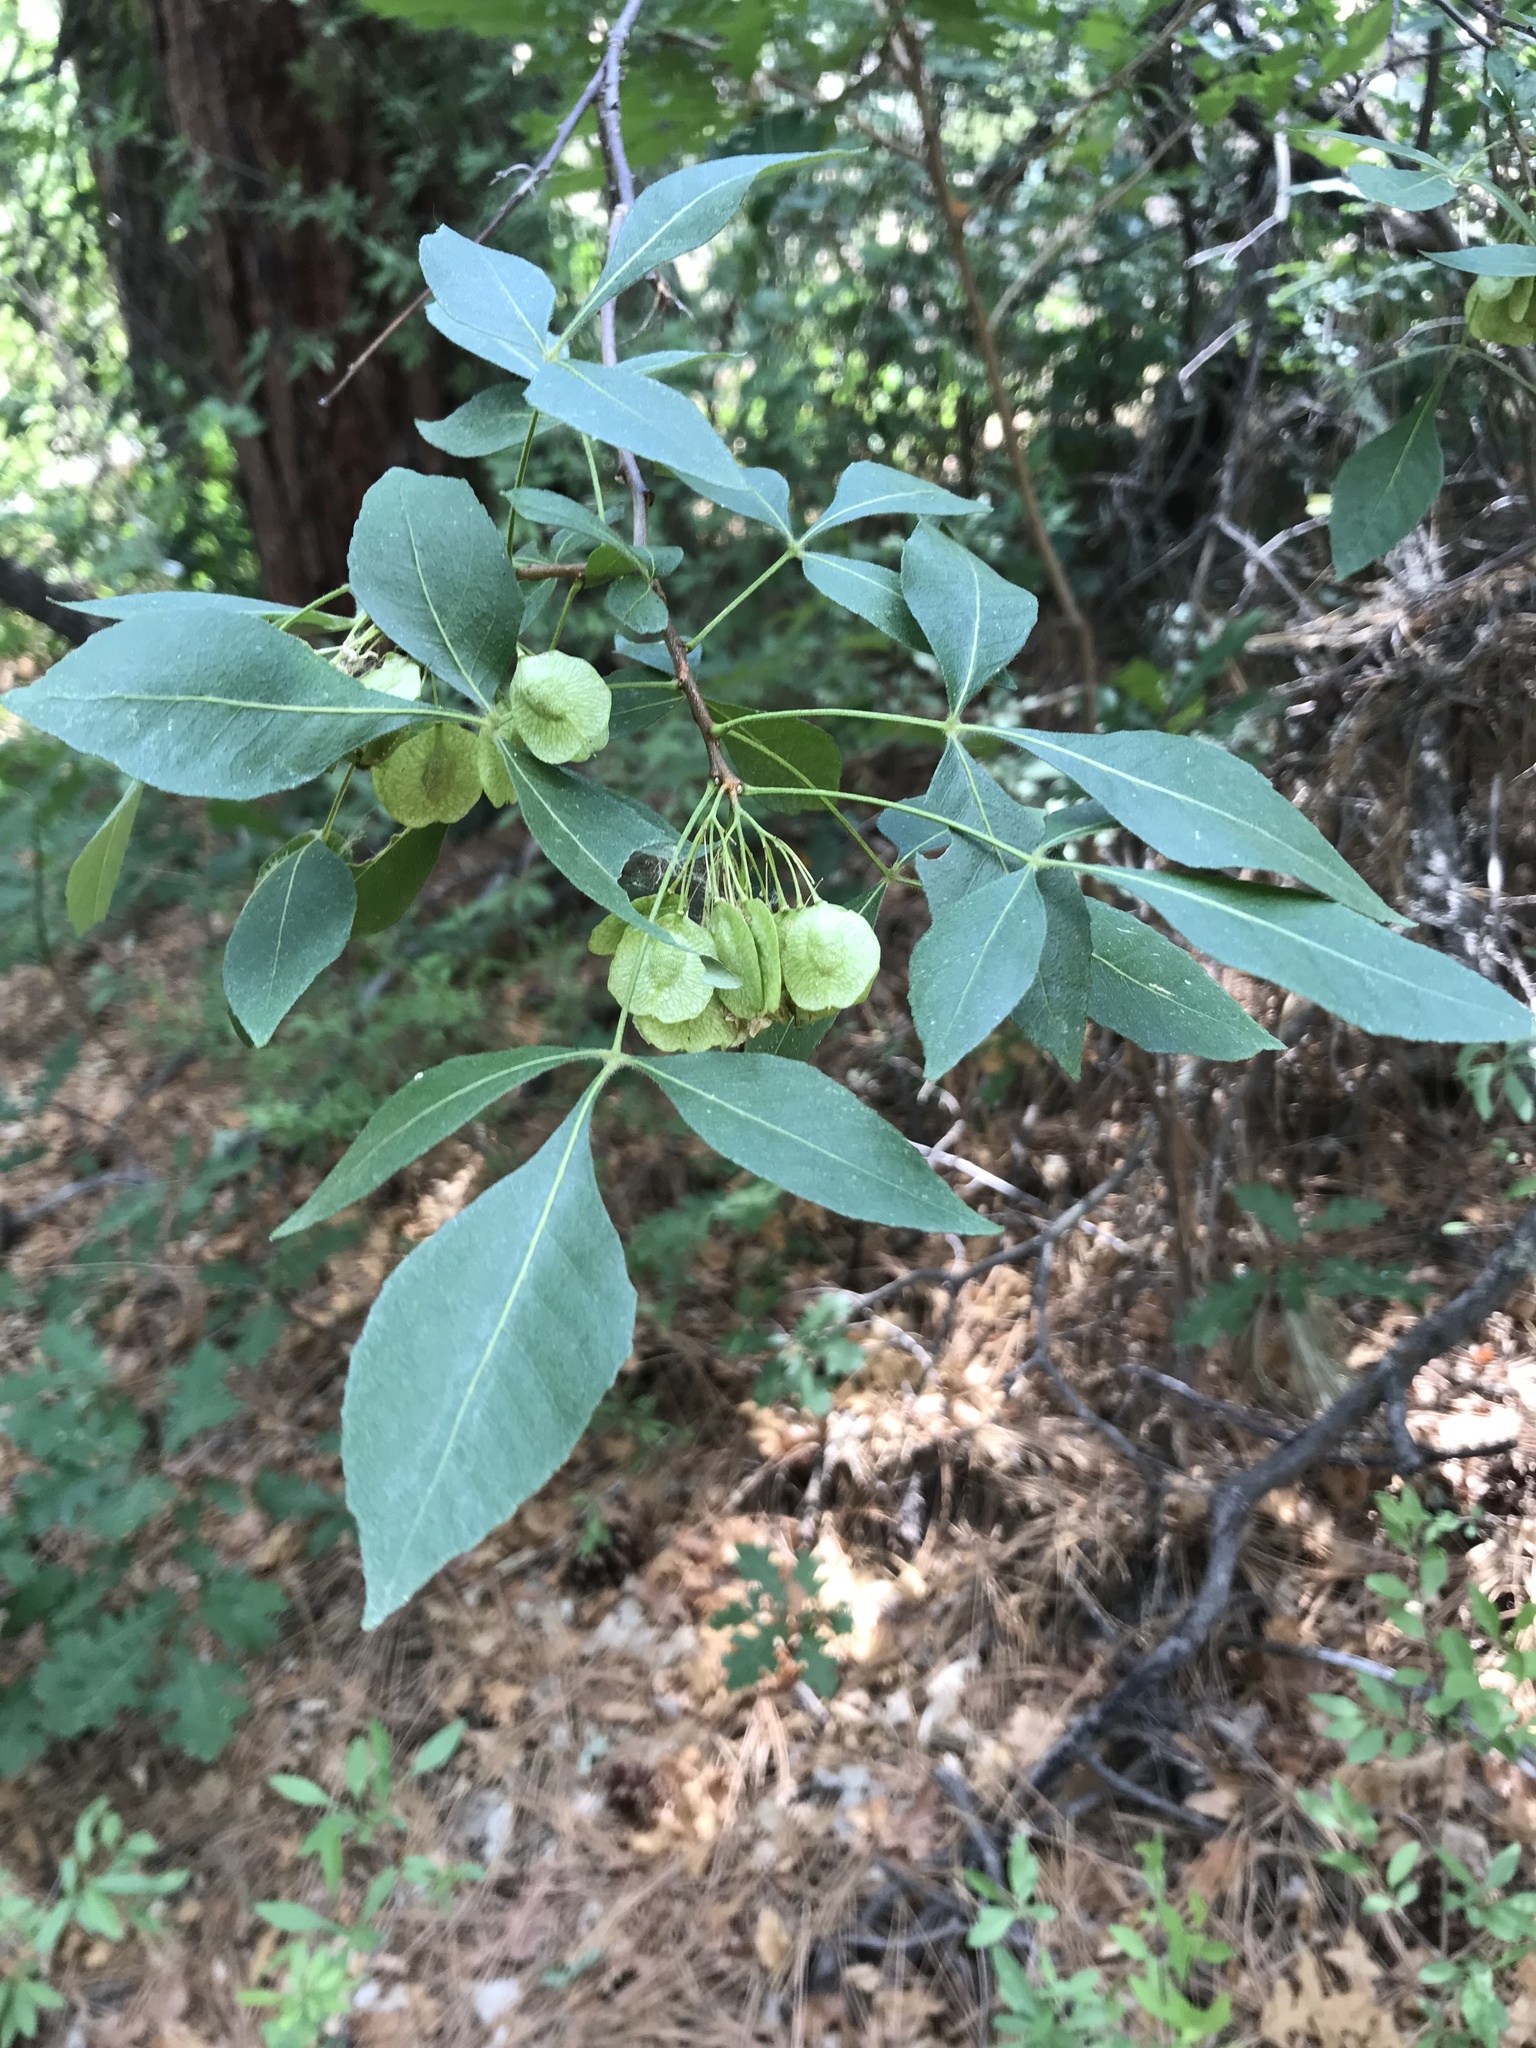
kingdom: Plantae
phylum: Tracheophyta
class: Magnoliopsida
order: Sapindales
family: Rutaceae
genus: Ptelea
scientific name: Ptelea trifoliata
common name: Common hop-tree
